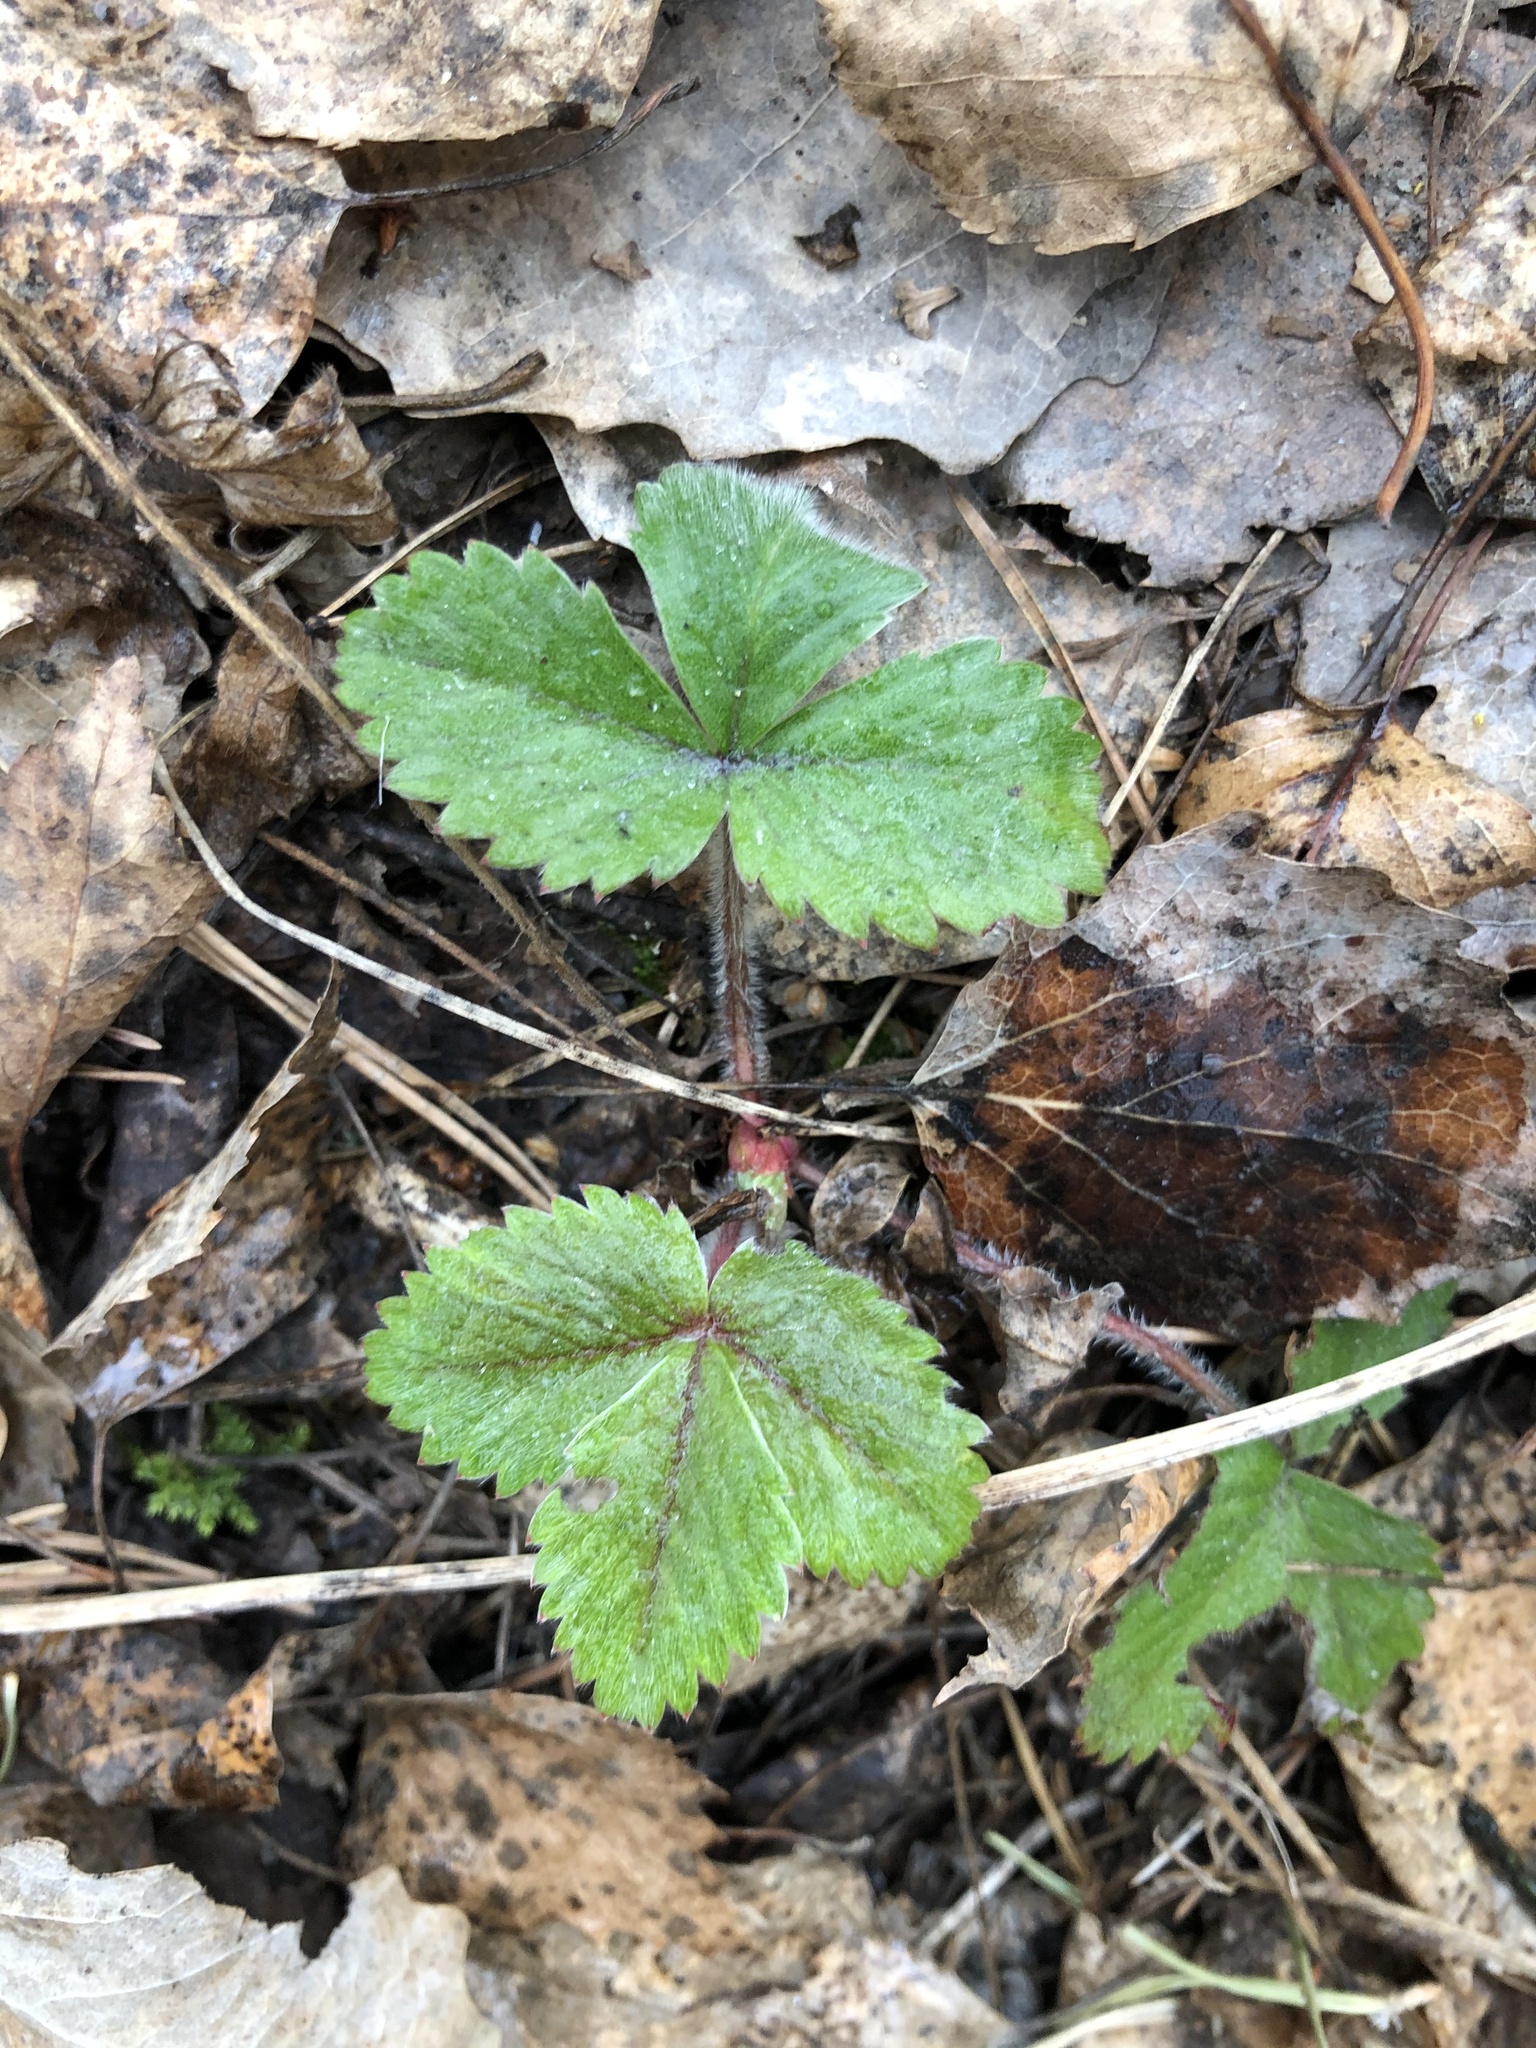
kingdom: Plantae
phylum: Tracheophyta
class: Magnoliopsida
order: Rosales
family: Rosaceae
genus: Fragaria
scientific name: Fragaria vesca
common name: Wild strawberry
